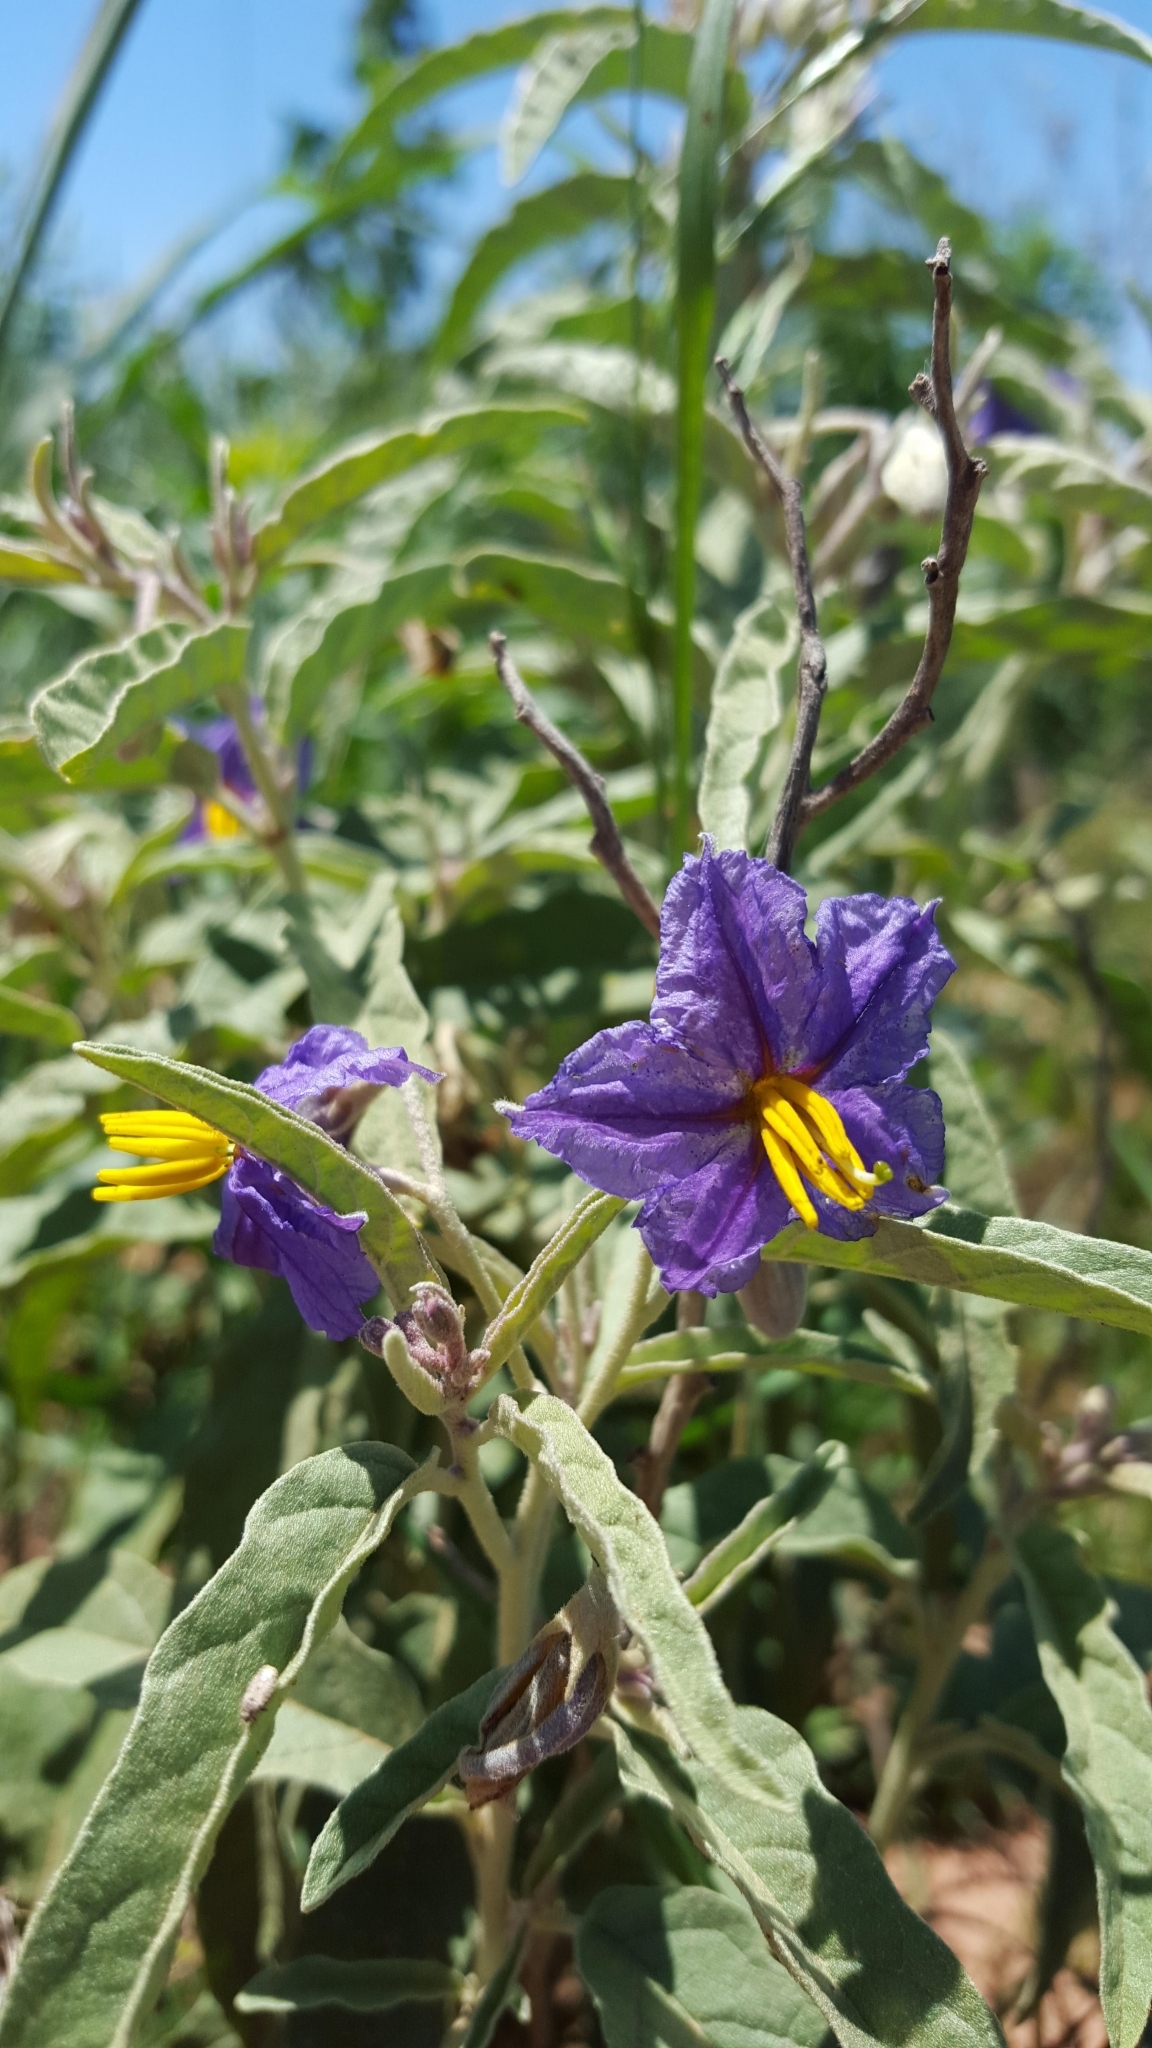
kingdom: Plantae
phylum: Tracheophyta
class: Magnoliopsida
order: Solanales
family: Solanaceae
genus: Solanum
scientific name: Solanum elaeagnifolium
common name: Silverleaf nightshade
